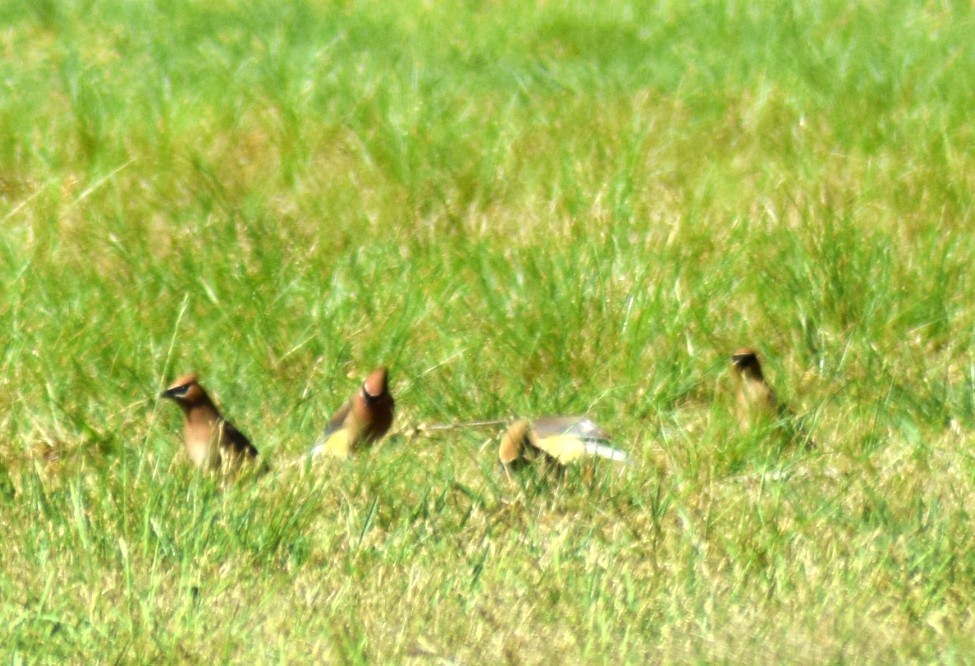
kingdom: Animalia
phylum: Chordata
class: Aves
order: Passeriformes
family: Bombycillidae
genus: Bombycilla
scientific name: Bombycilla cedrorum
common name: Cedar waxwing
